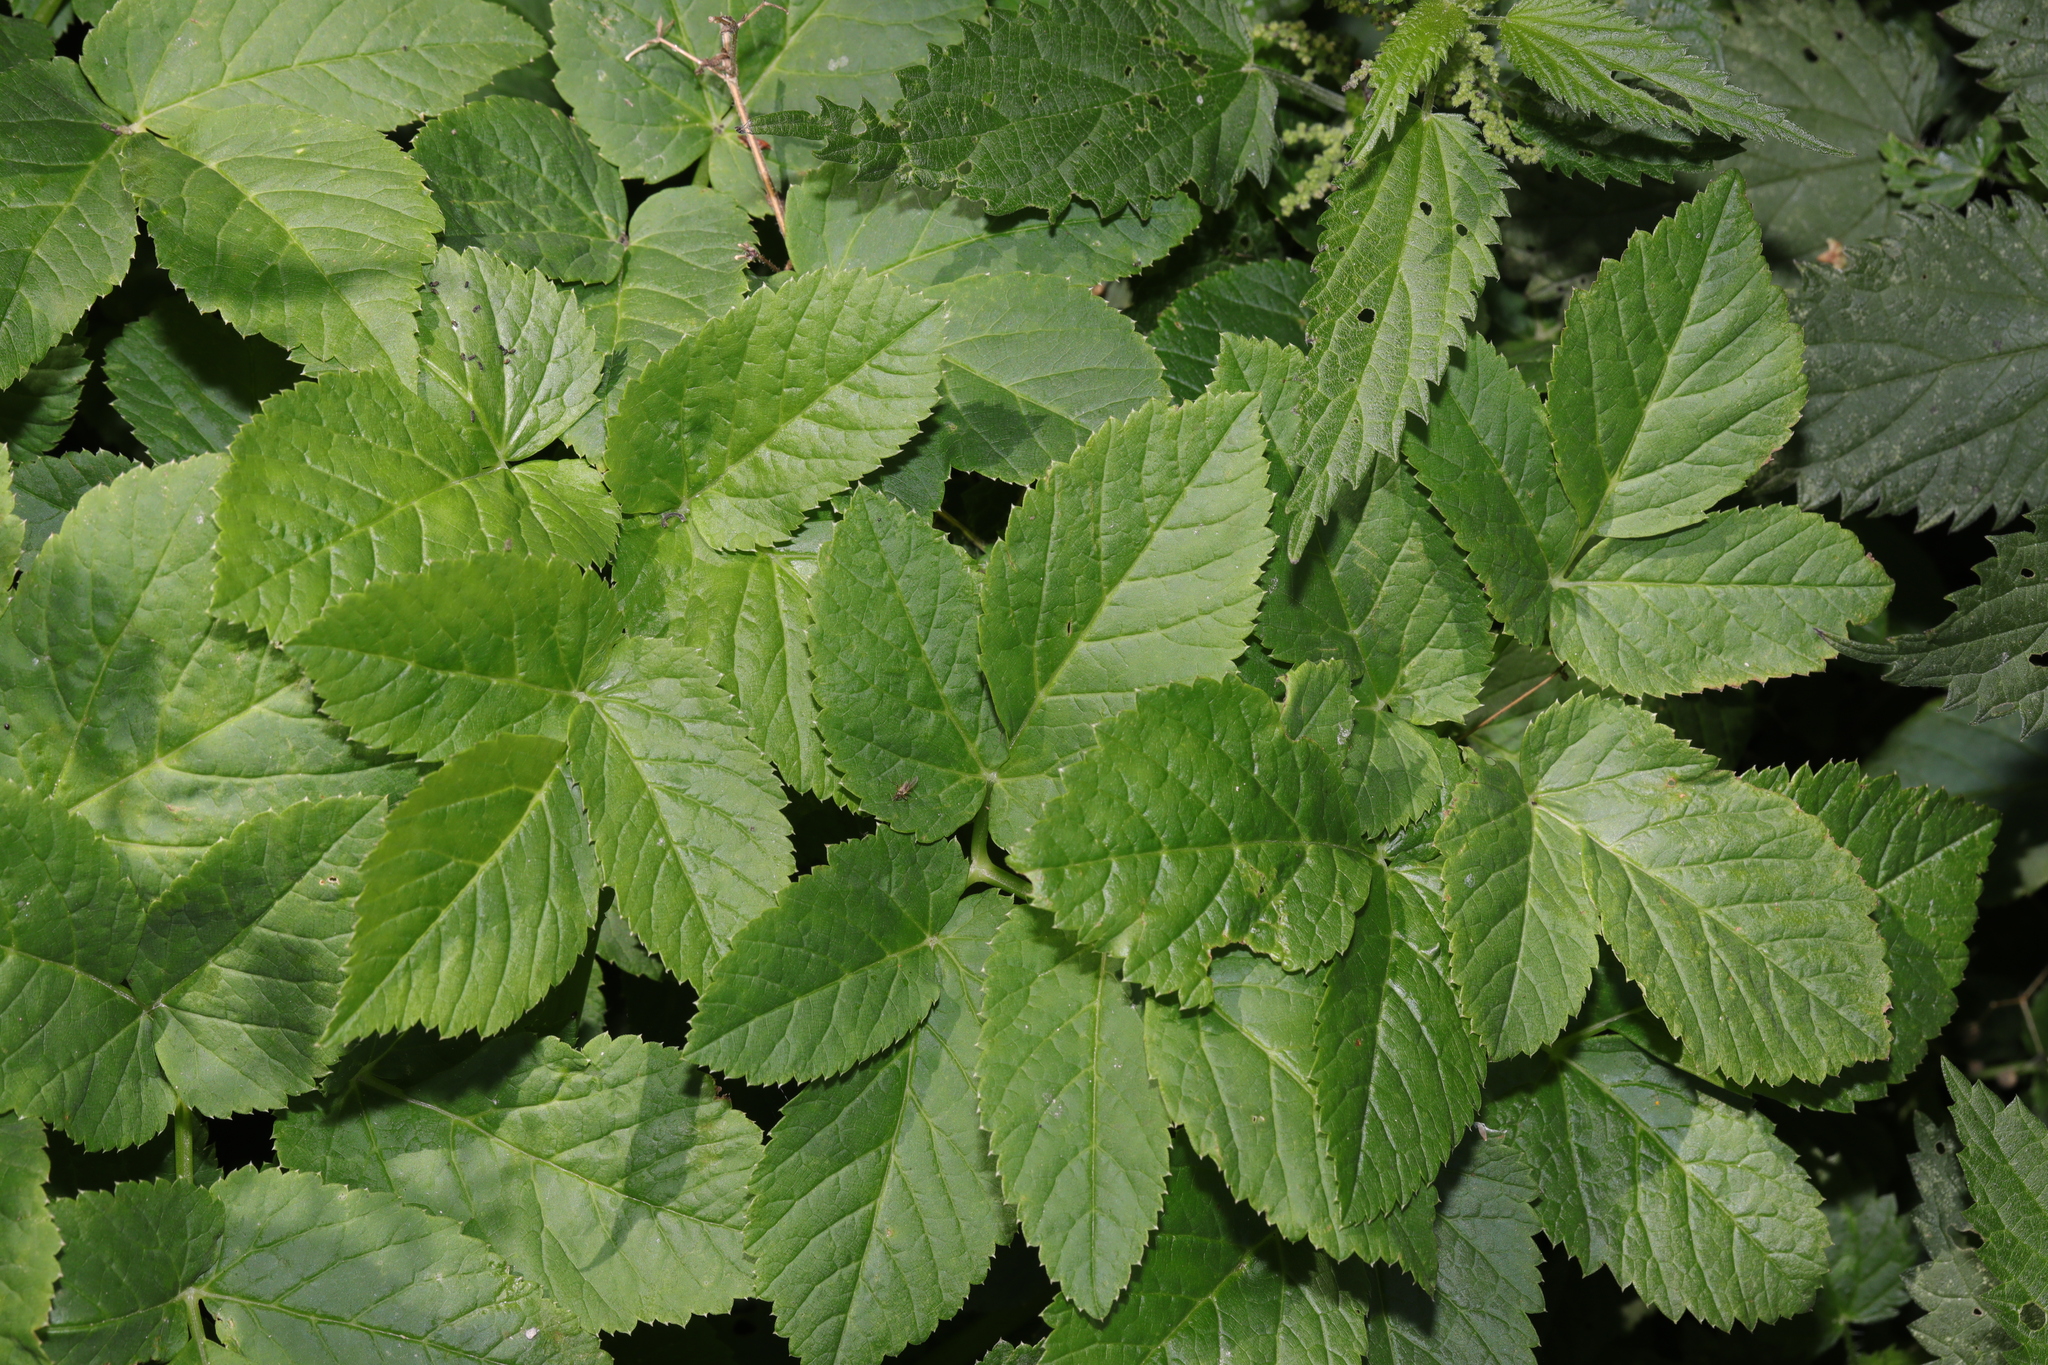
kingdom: Plantae
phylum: Tracheophyta
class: Magnoliopsida
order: Apiales
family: Apiaceae
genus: Aegopodium
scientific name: Aegopodium podagraria
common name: Ground-elder
